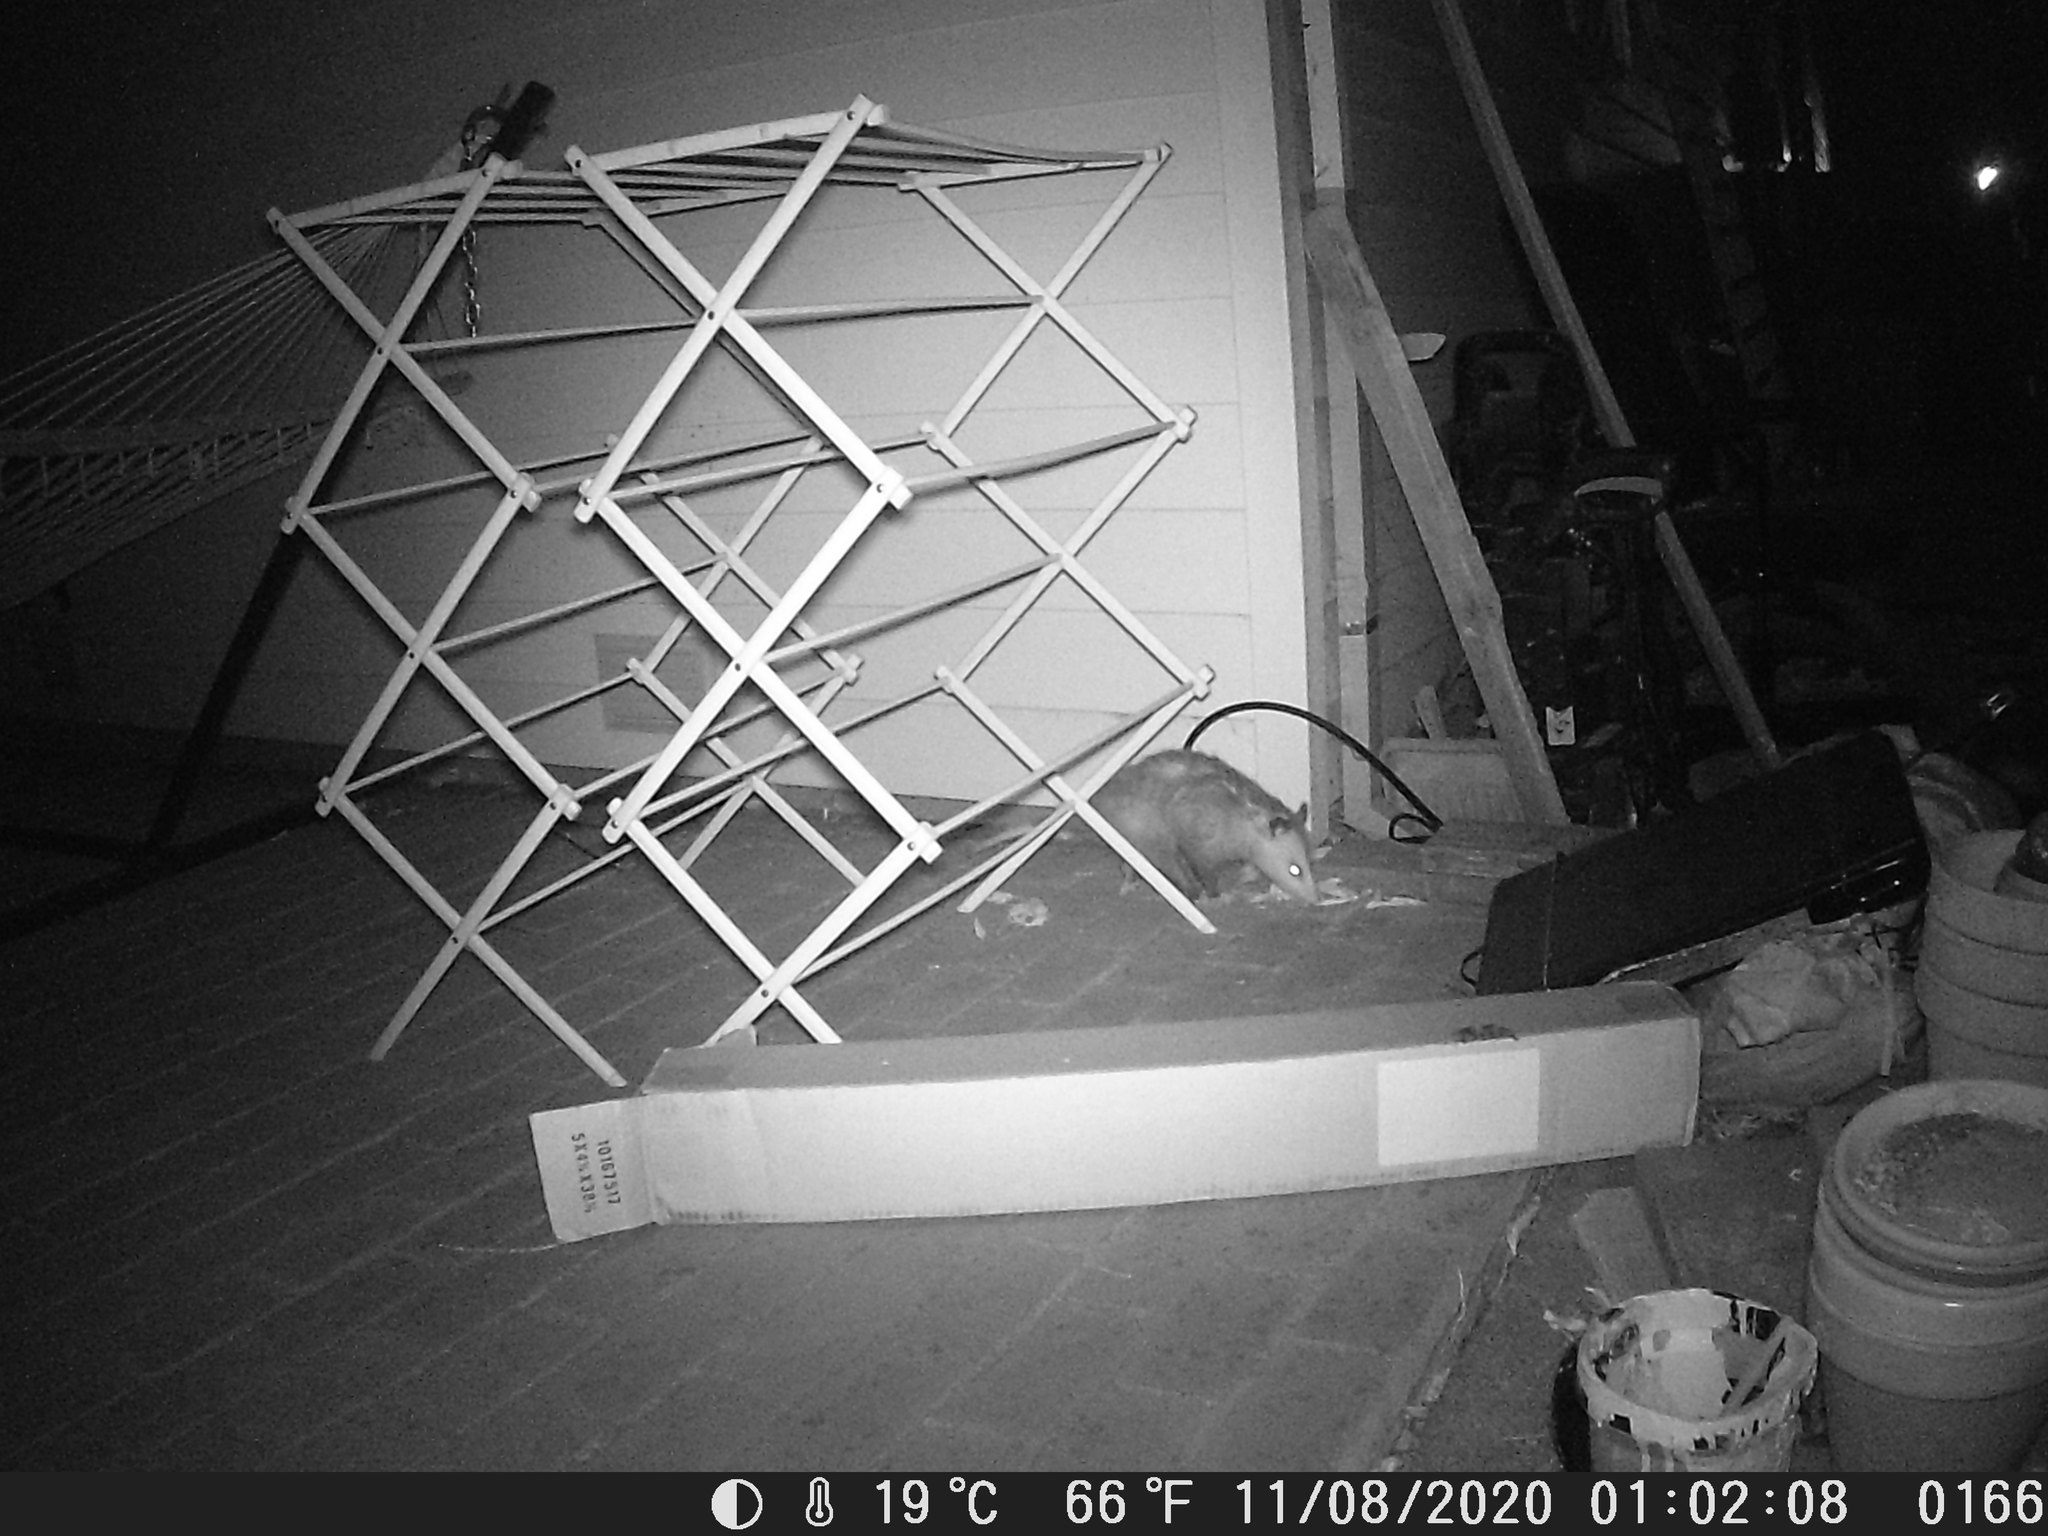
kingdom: Animalia
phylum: Chordata
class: Mammalia
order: Didelphimorphia
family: Didelphidae
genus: Didelphis
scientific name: Didelphis virginiana
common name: Virginia opossum
